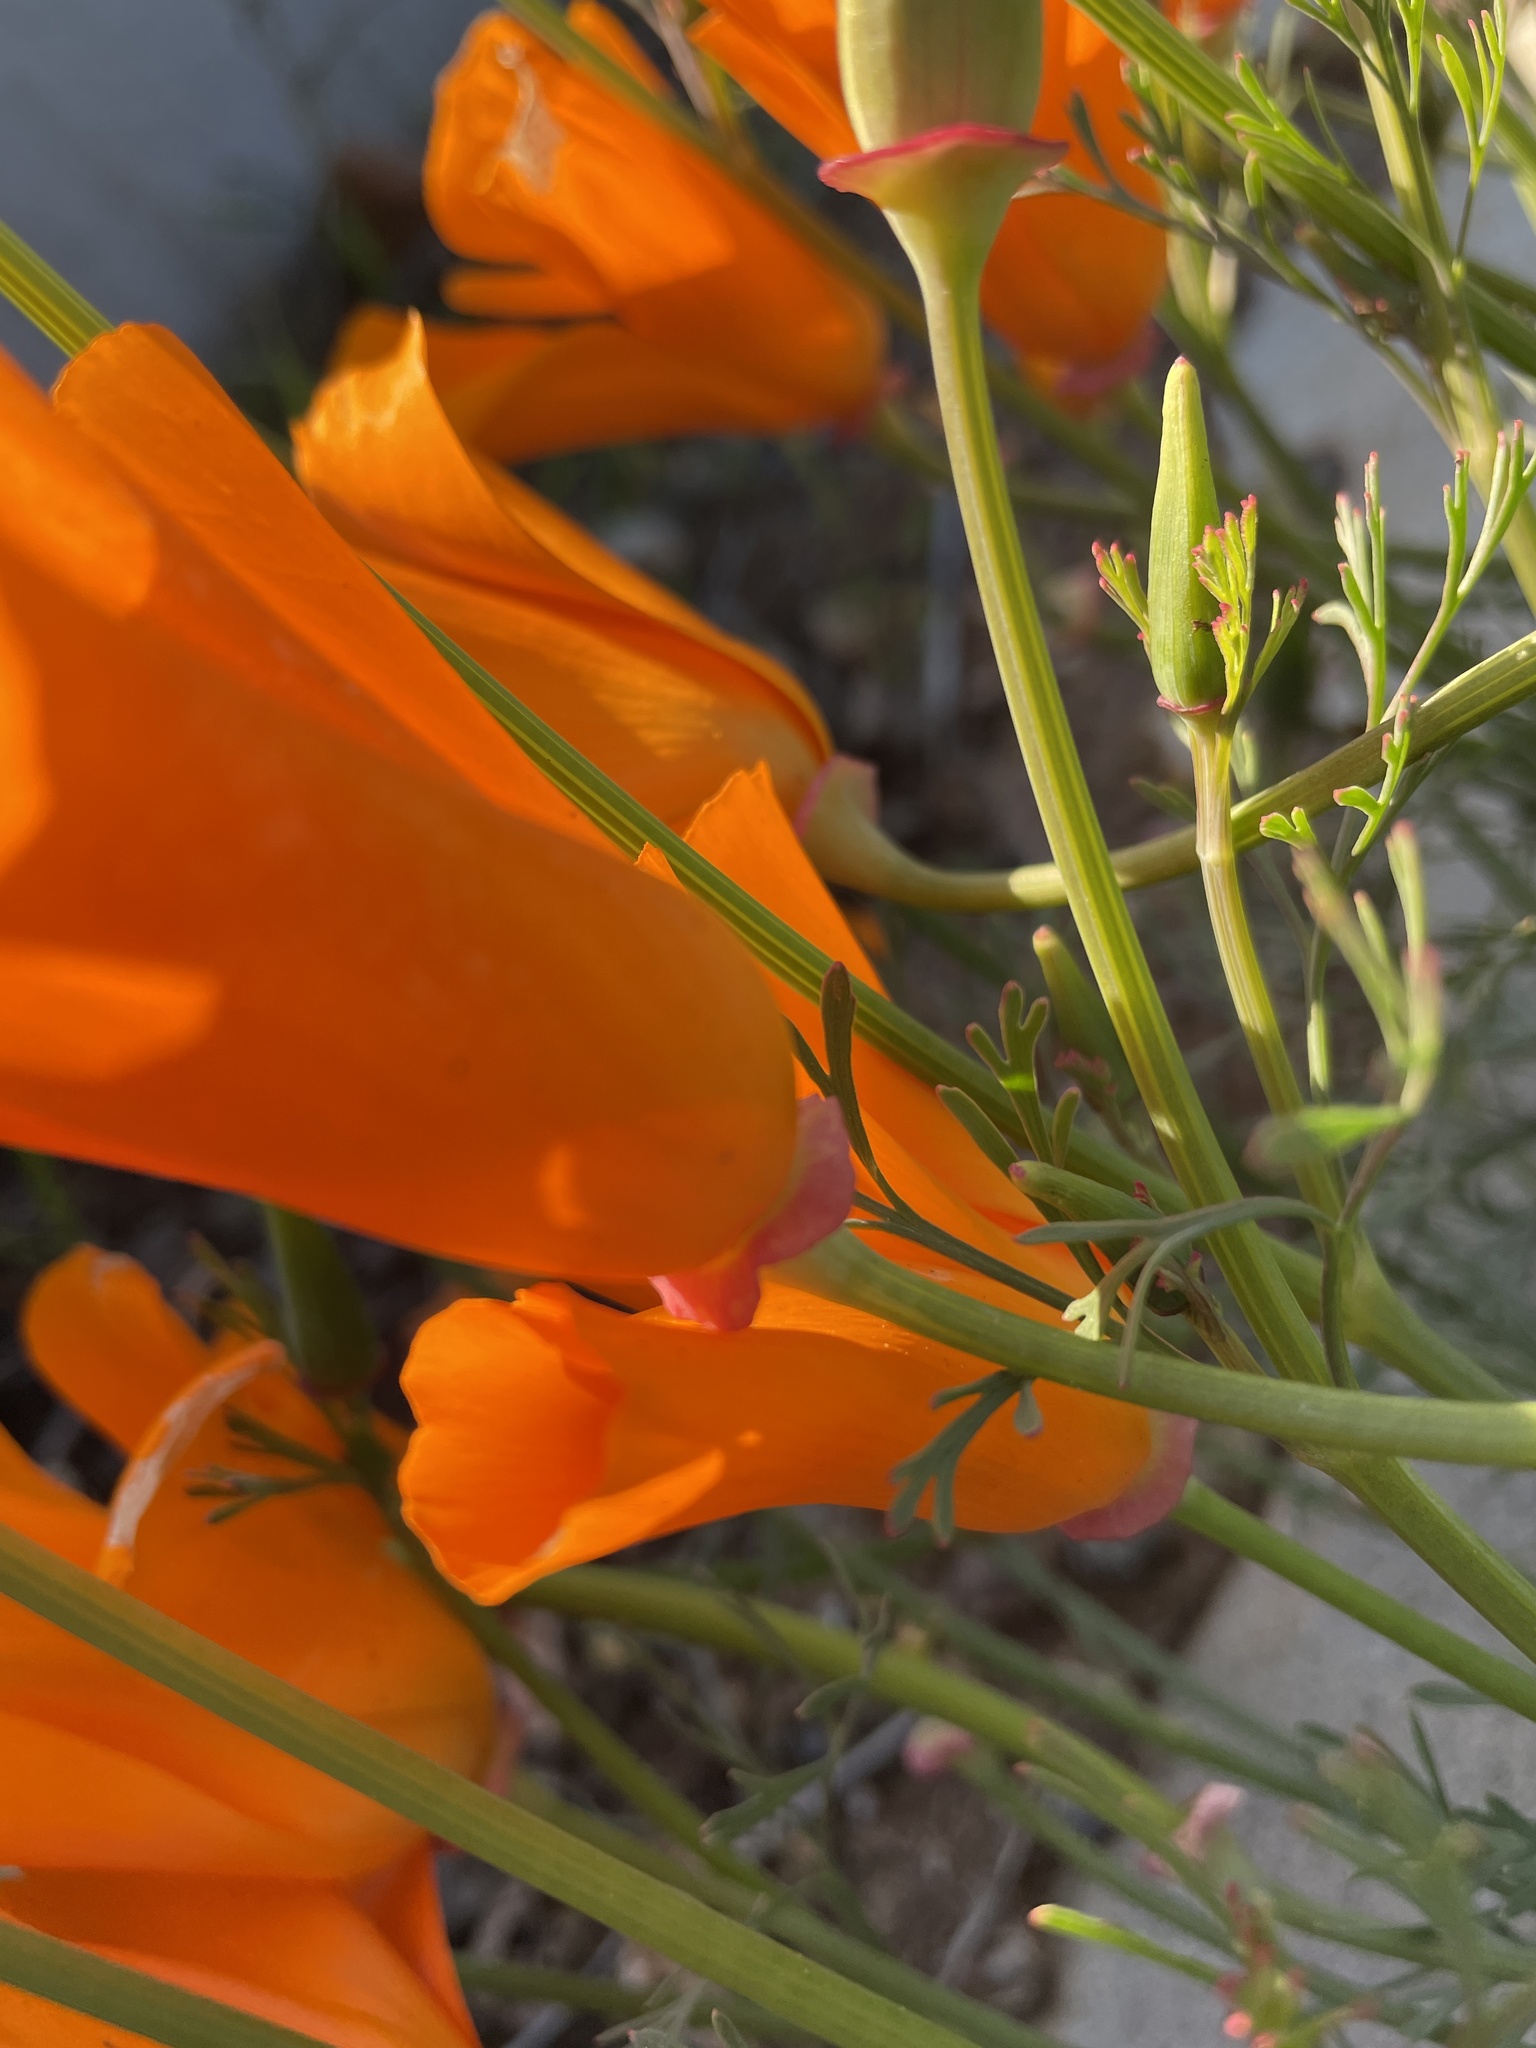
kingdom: Plantae
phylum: Tracheophyta
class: Magnoliopsida
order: Ranunculales
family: Papaveraceae
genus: Eschscholzia
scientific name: Eschscholzia californica
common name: California poppy
